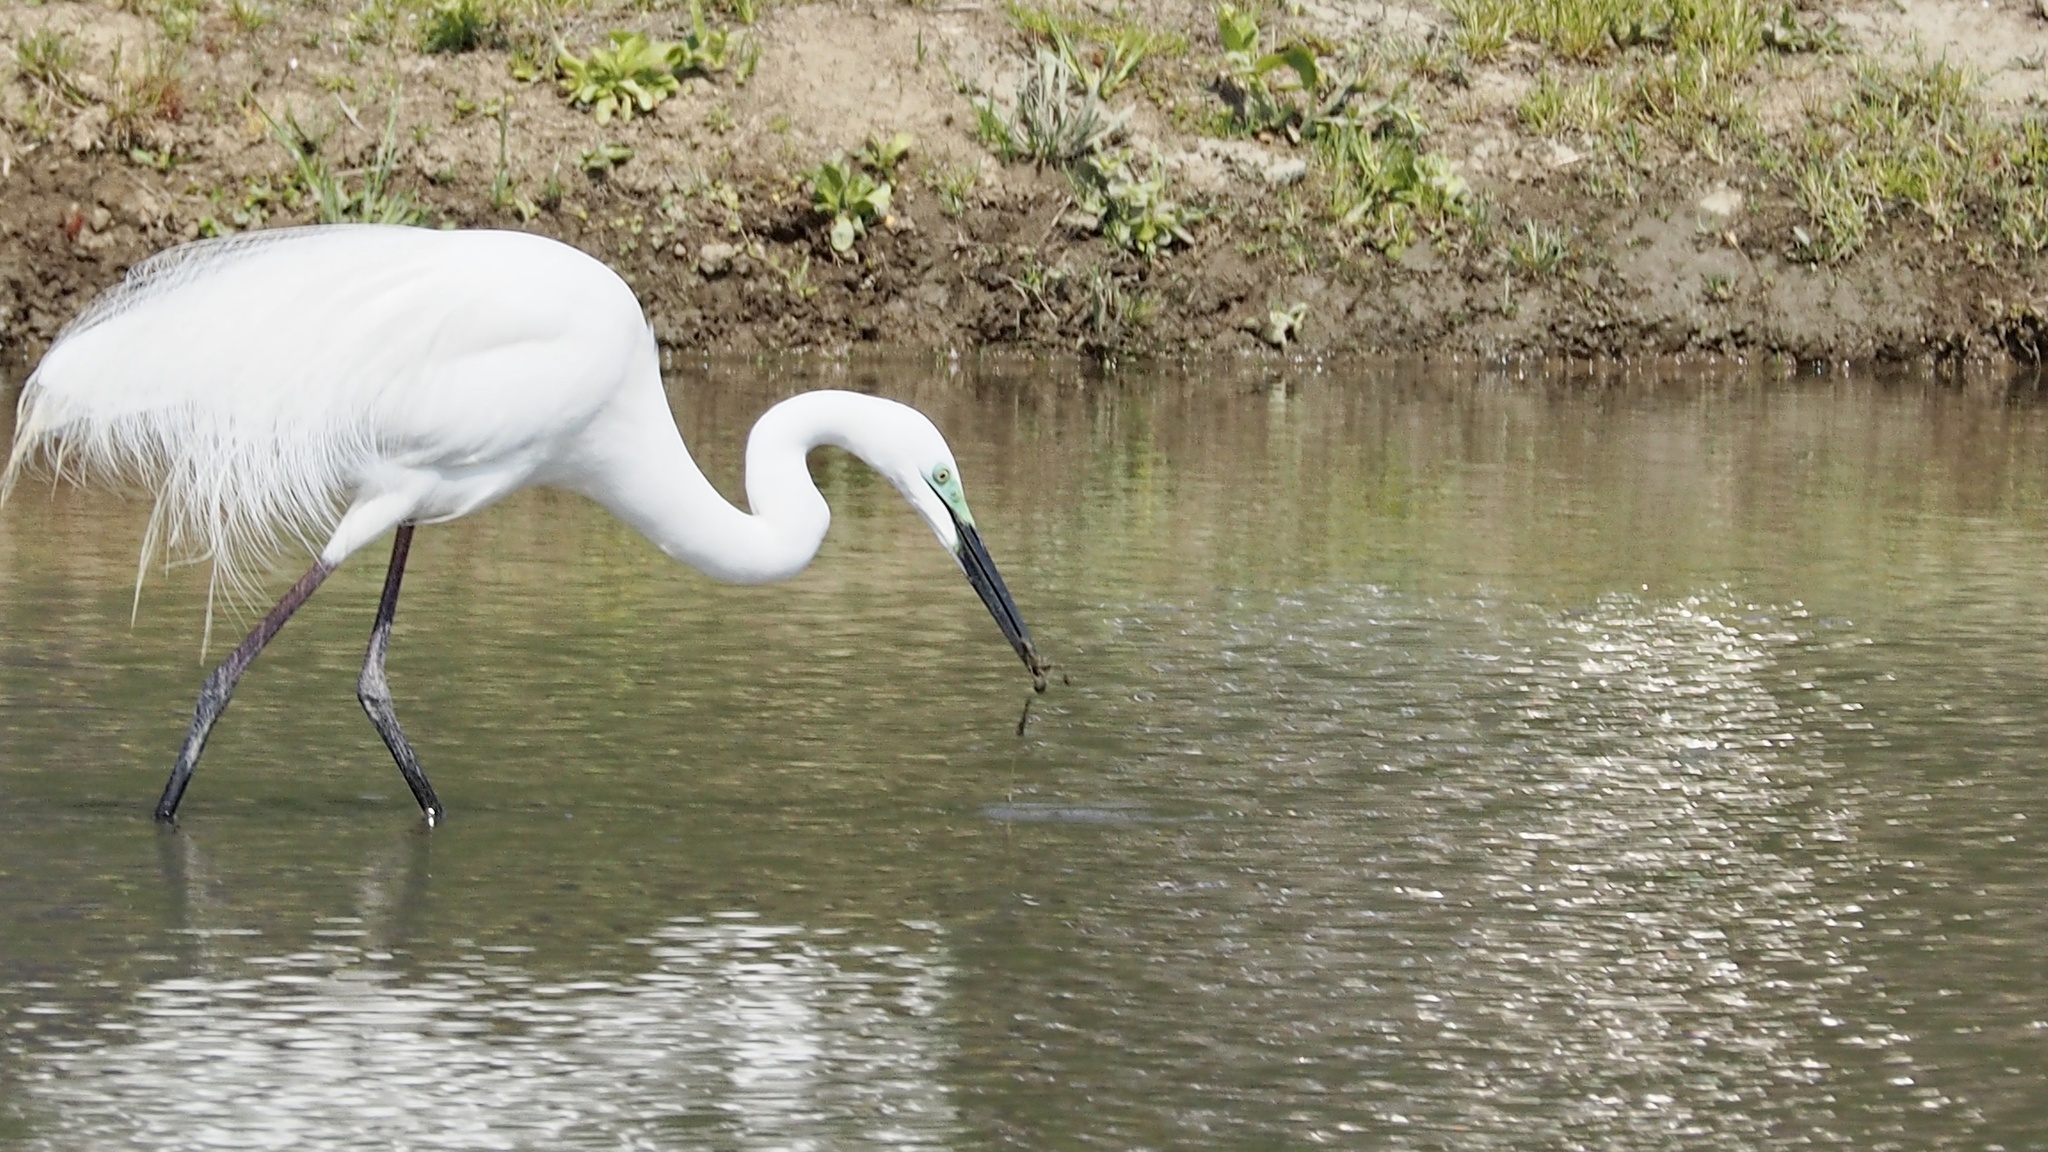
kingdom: Animalia
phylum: Chordata
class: Aves
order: Pelecaniformes
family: Ardeidae
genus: Ardea
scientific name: Ardea alba
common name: Great egret
